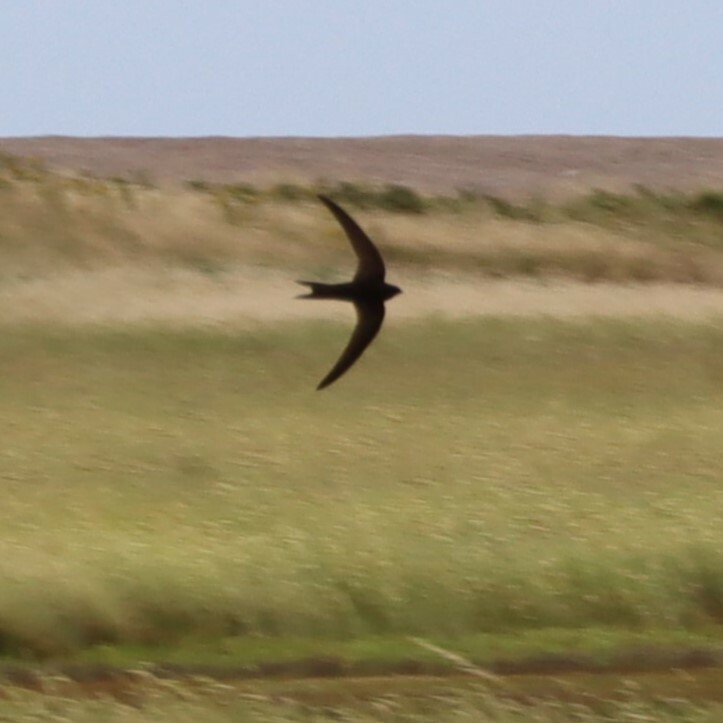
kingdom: Animalia
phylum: Chordata
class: Aves
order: Apodiformes
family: Apodidae
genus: Apus
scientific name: Apus apus
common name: Common swift
